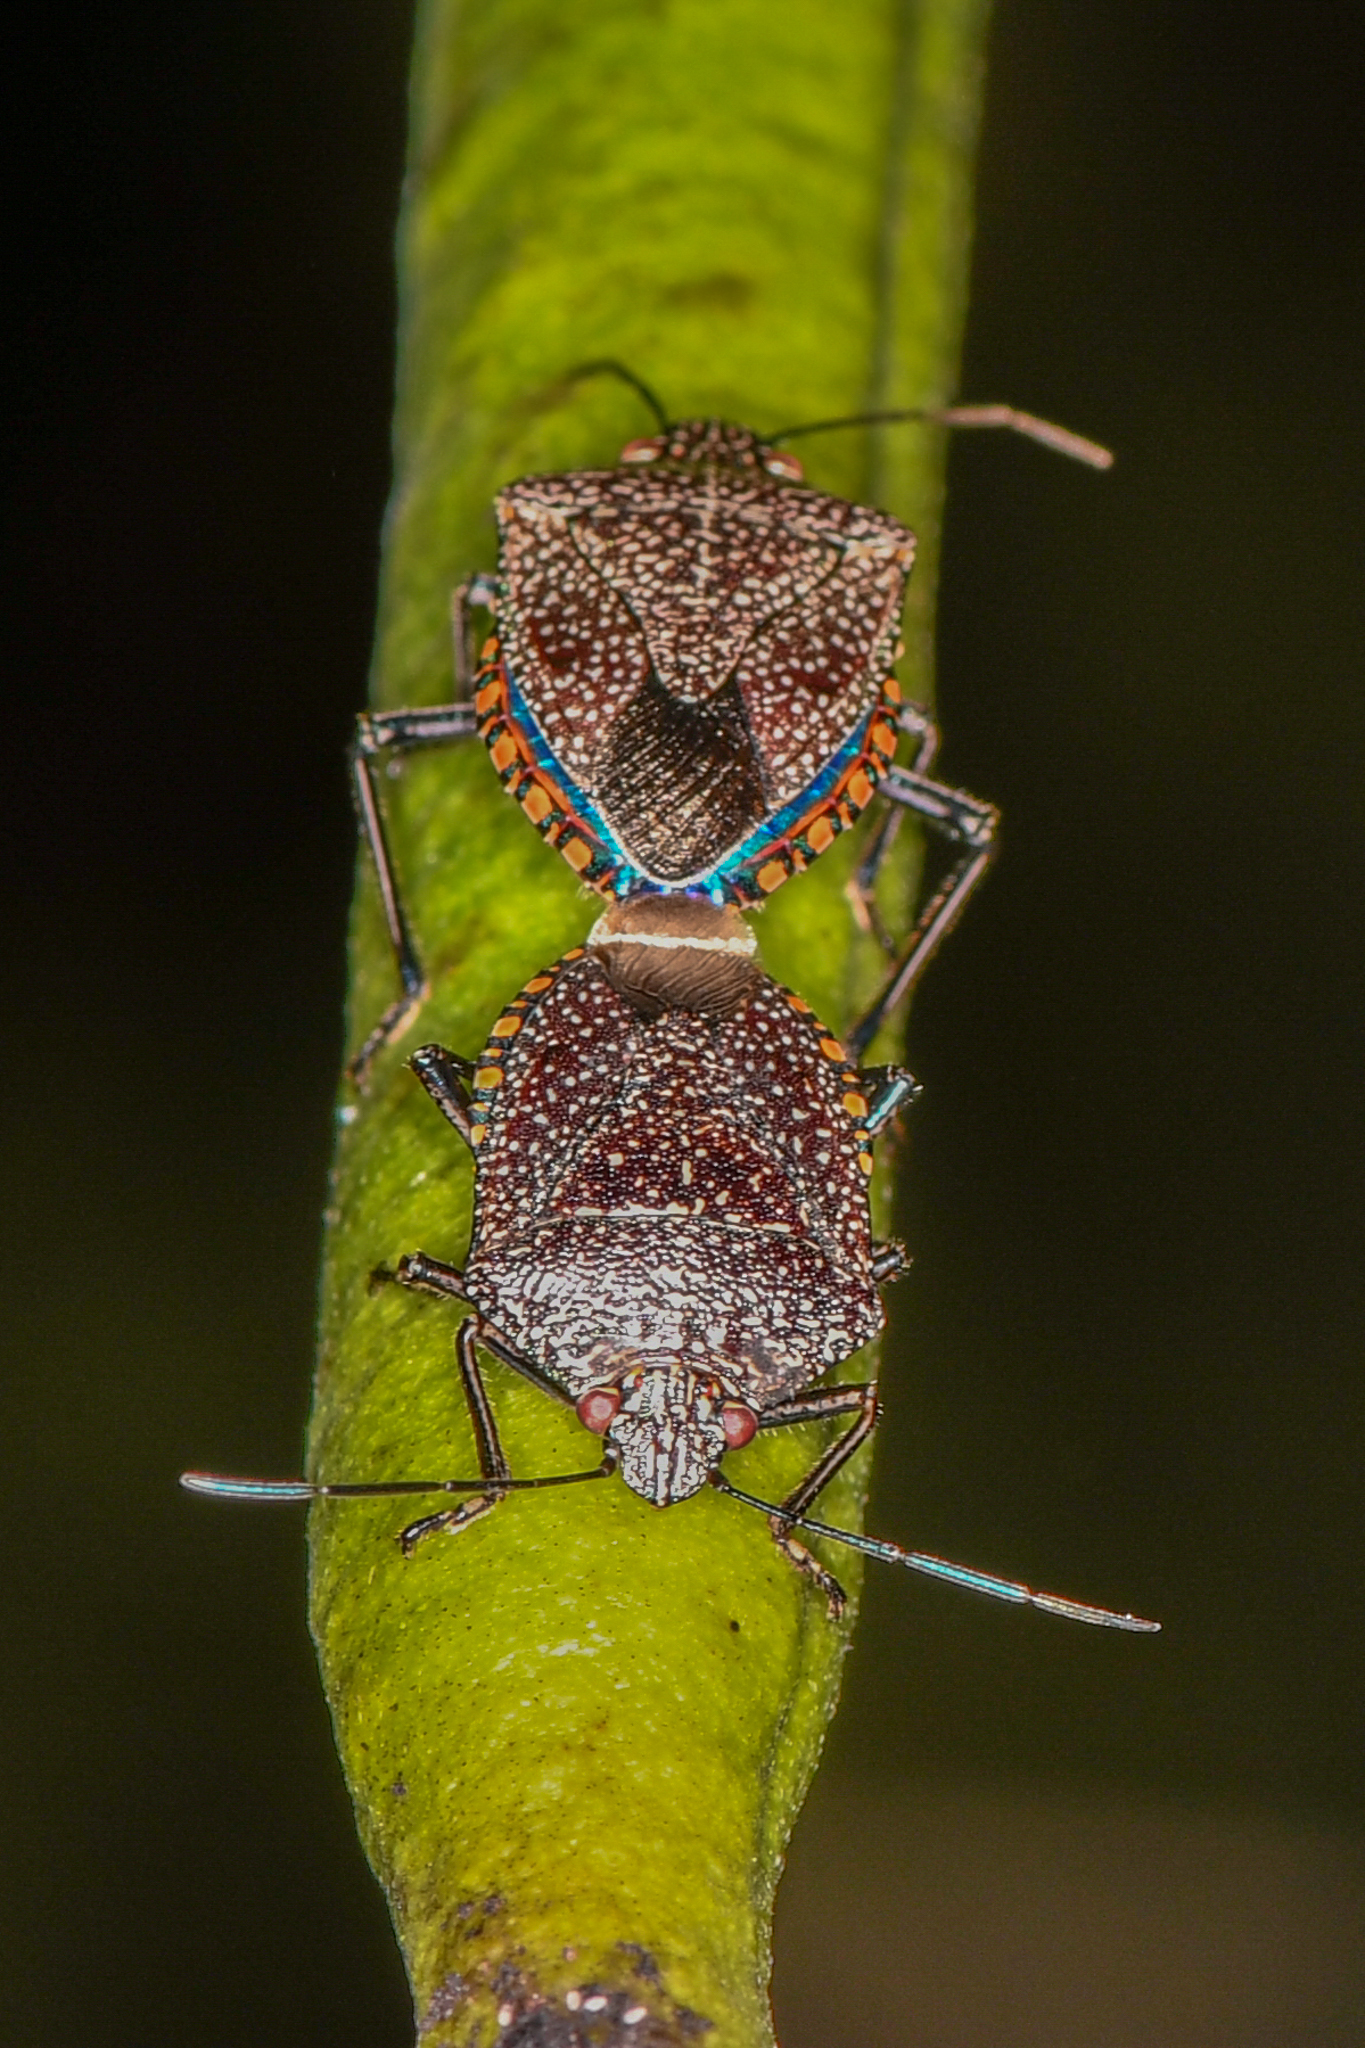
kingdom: Animalia
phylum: Arthropoda
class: Insecta
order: Hemiptera
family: Pentatomidae
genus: Pellaea
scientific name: Pellaea stictica
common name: Stink bug
